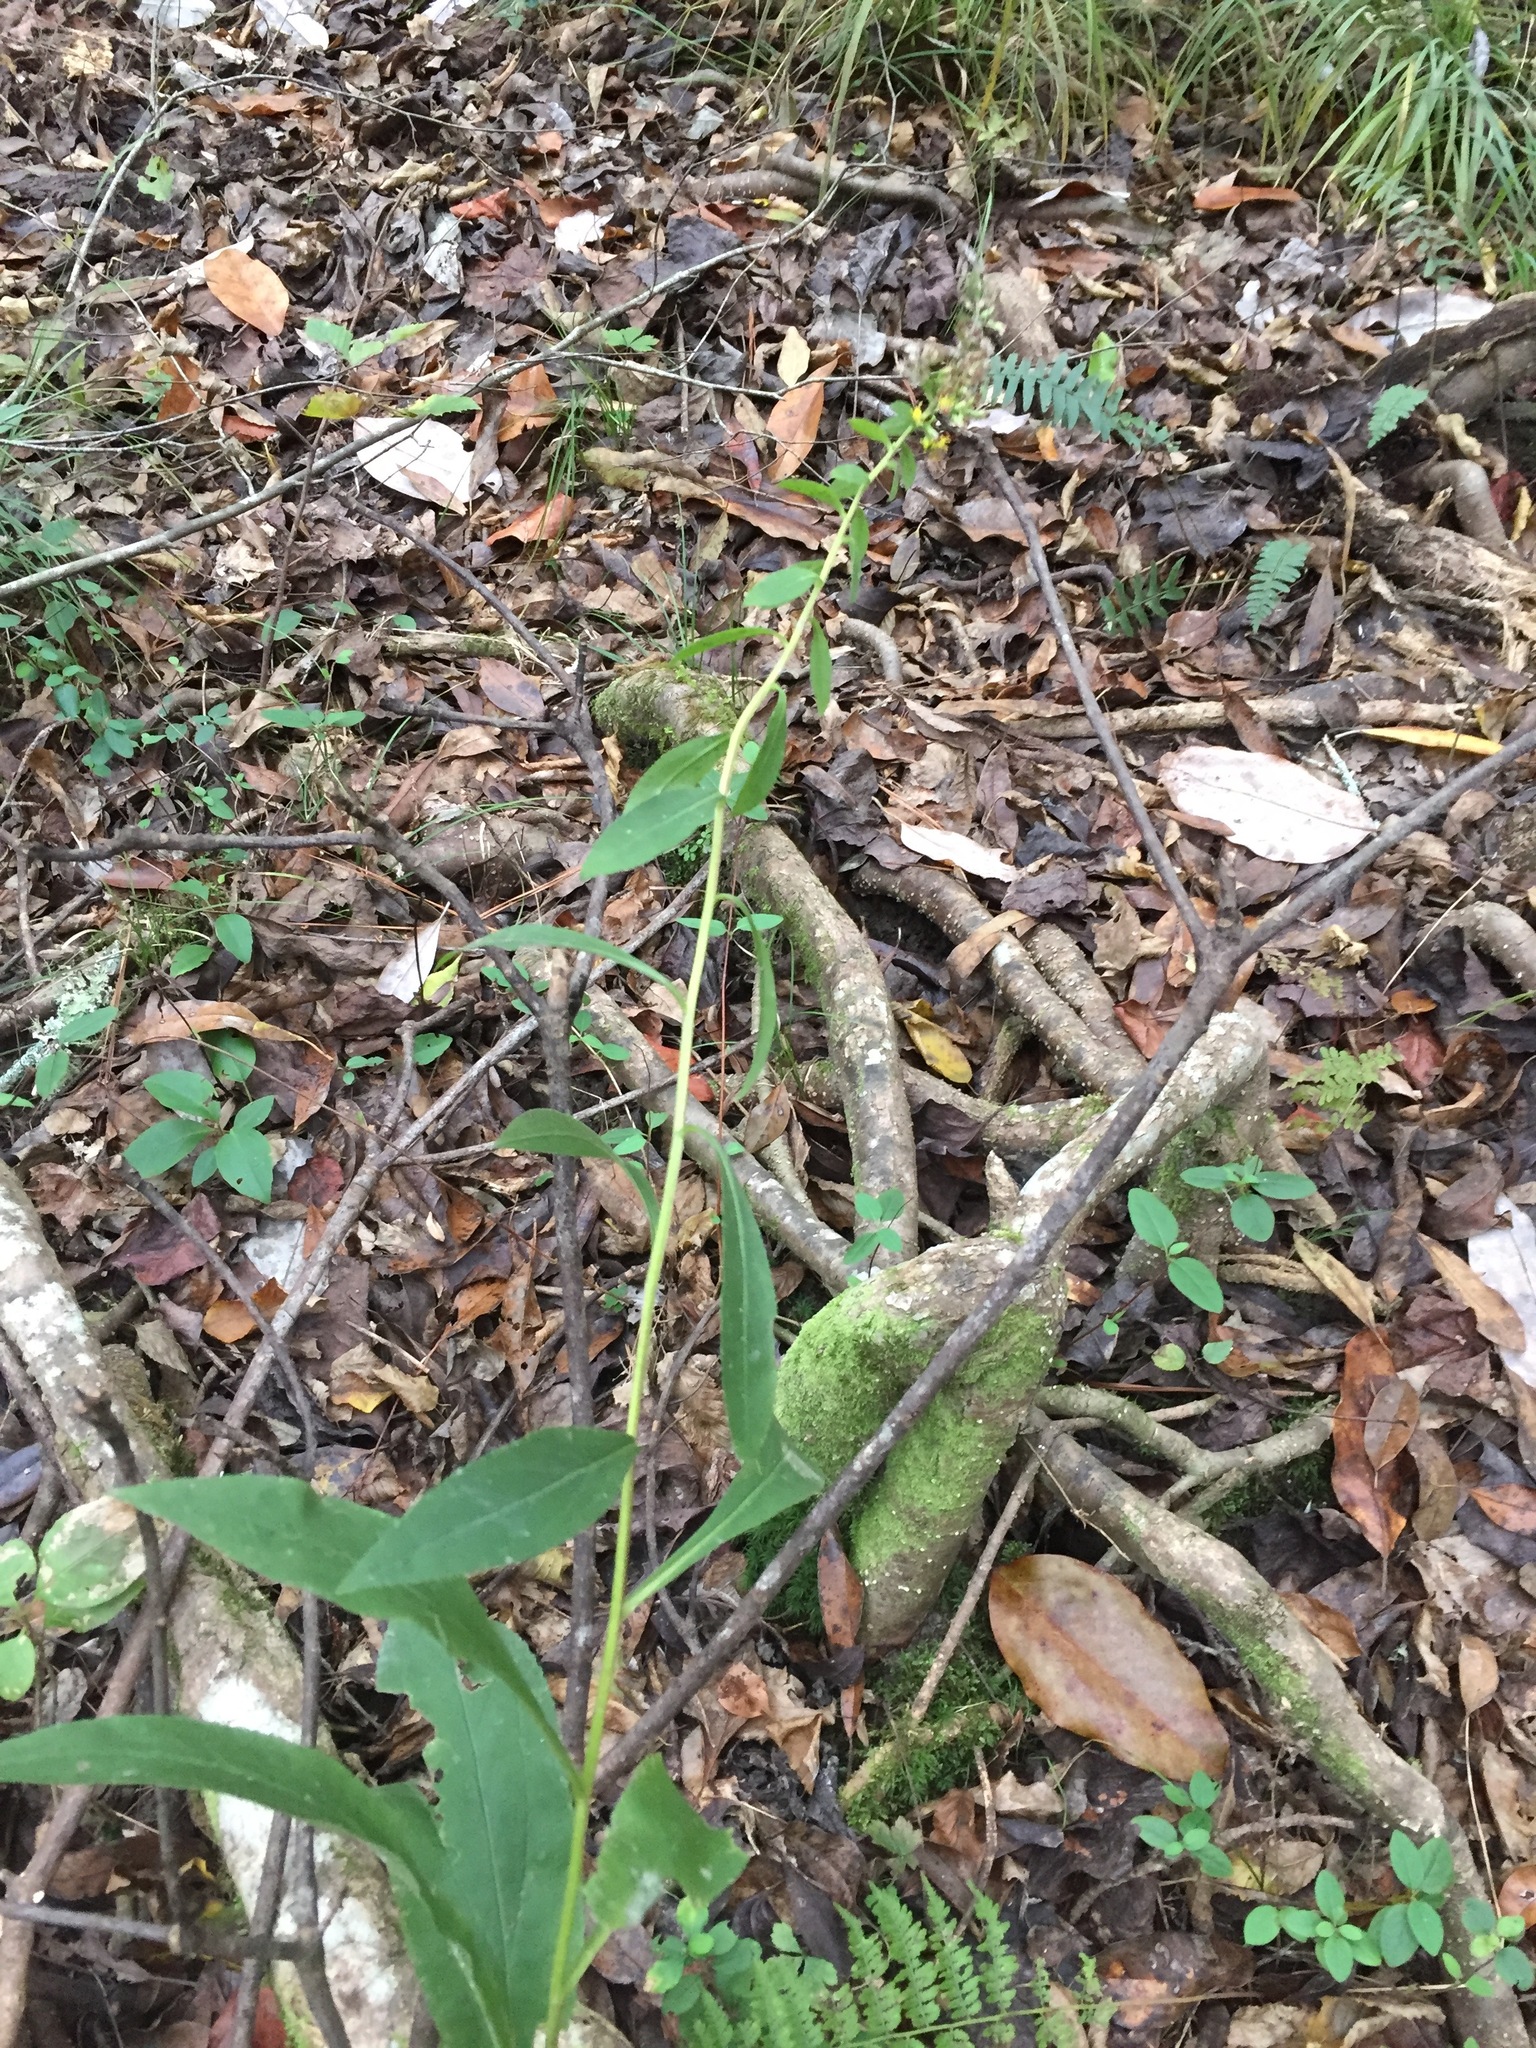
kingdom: Plantae
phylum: Tracheophyta
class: Magnoliopsida
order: Asterales
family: Asteraceae
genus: Solidago
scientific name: Solidago patula
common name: Rough-leaf goldenrod
